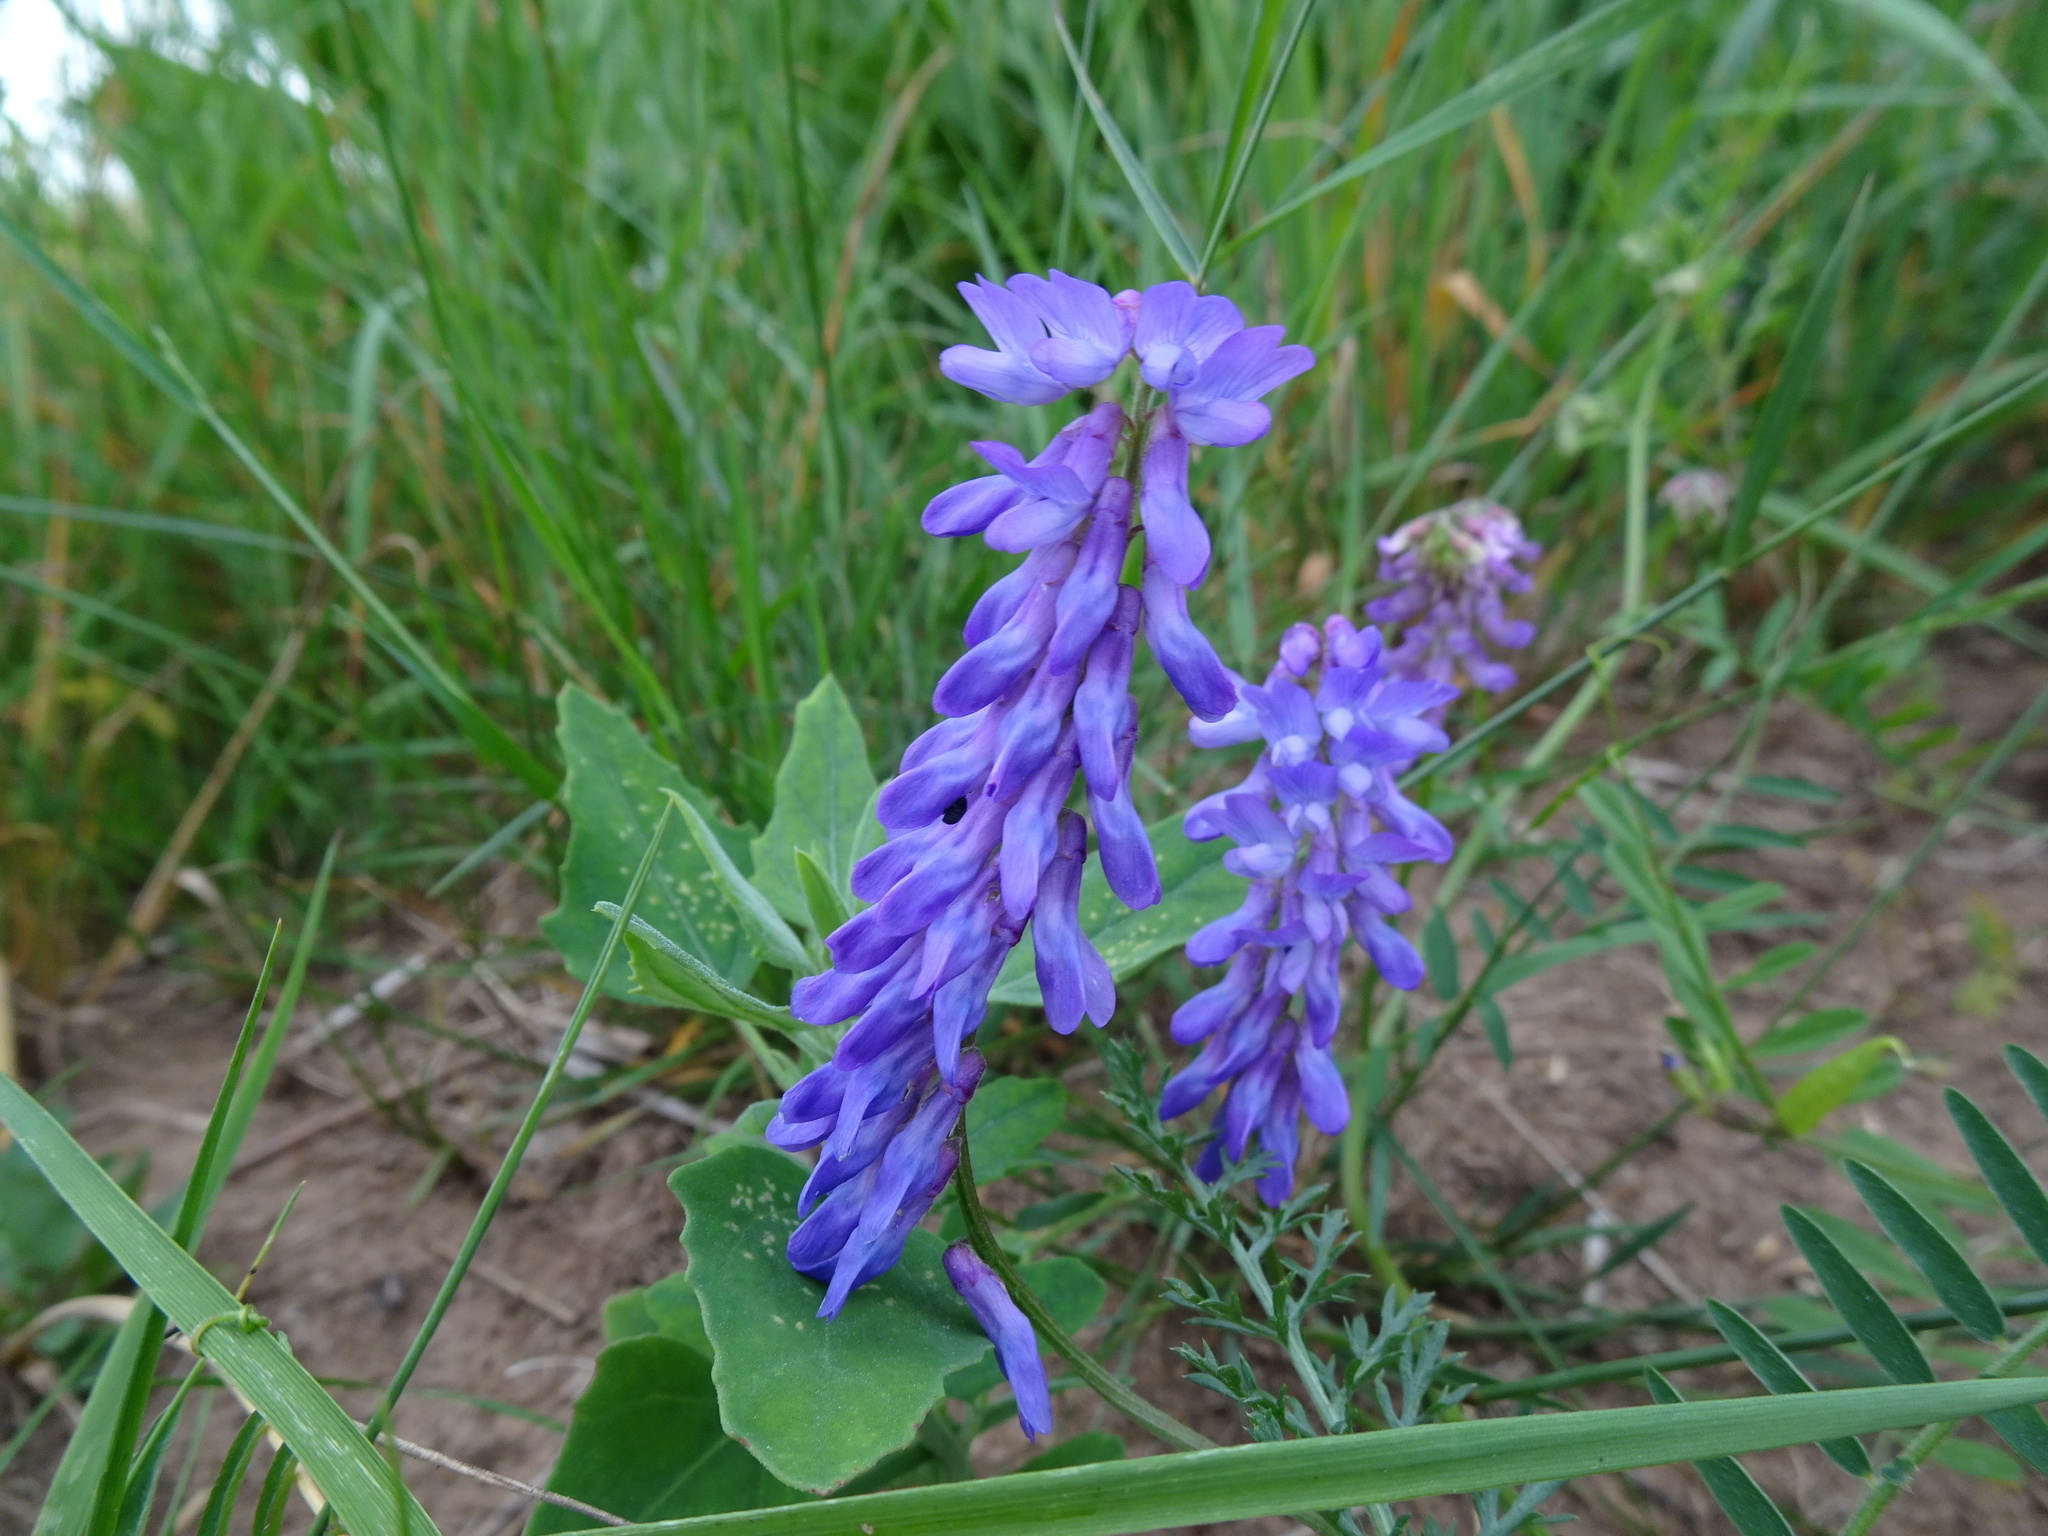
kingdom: Plantae
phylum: Tracheophyta
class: Magnoliopsida
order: Fabales
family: Fabaceae
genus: Vicia
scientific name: Vicia cracca
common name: Bird vetch
